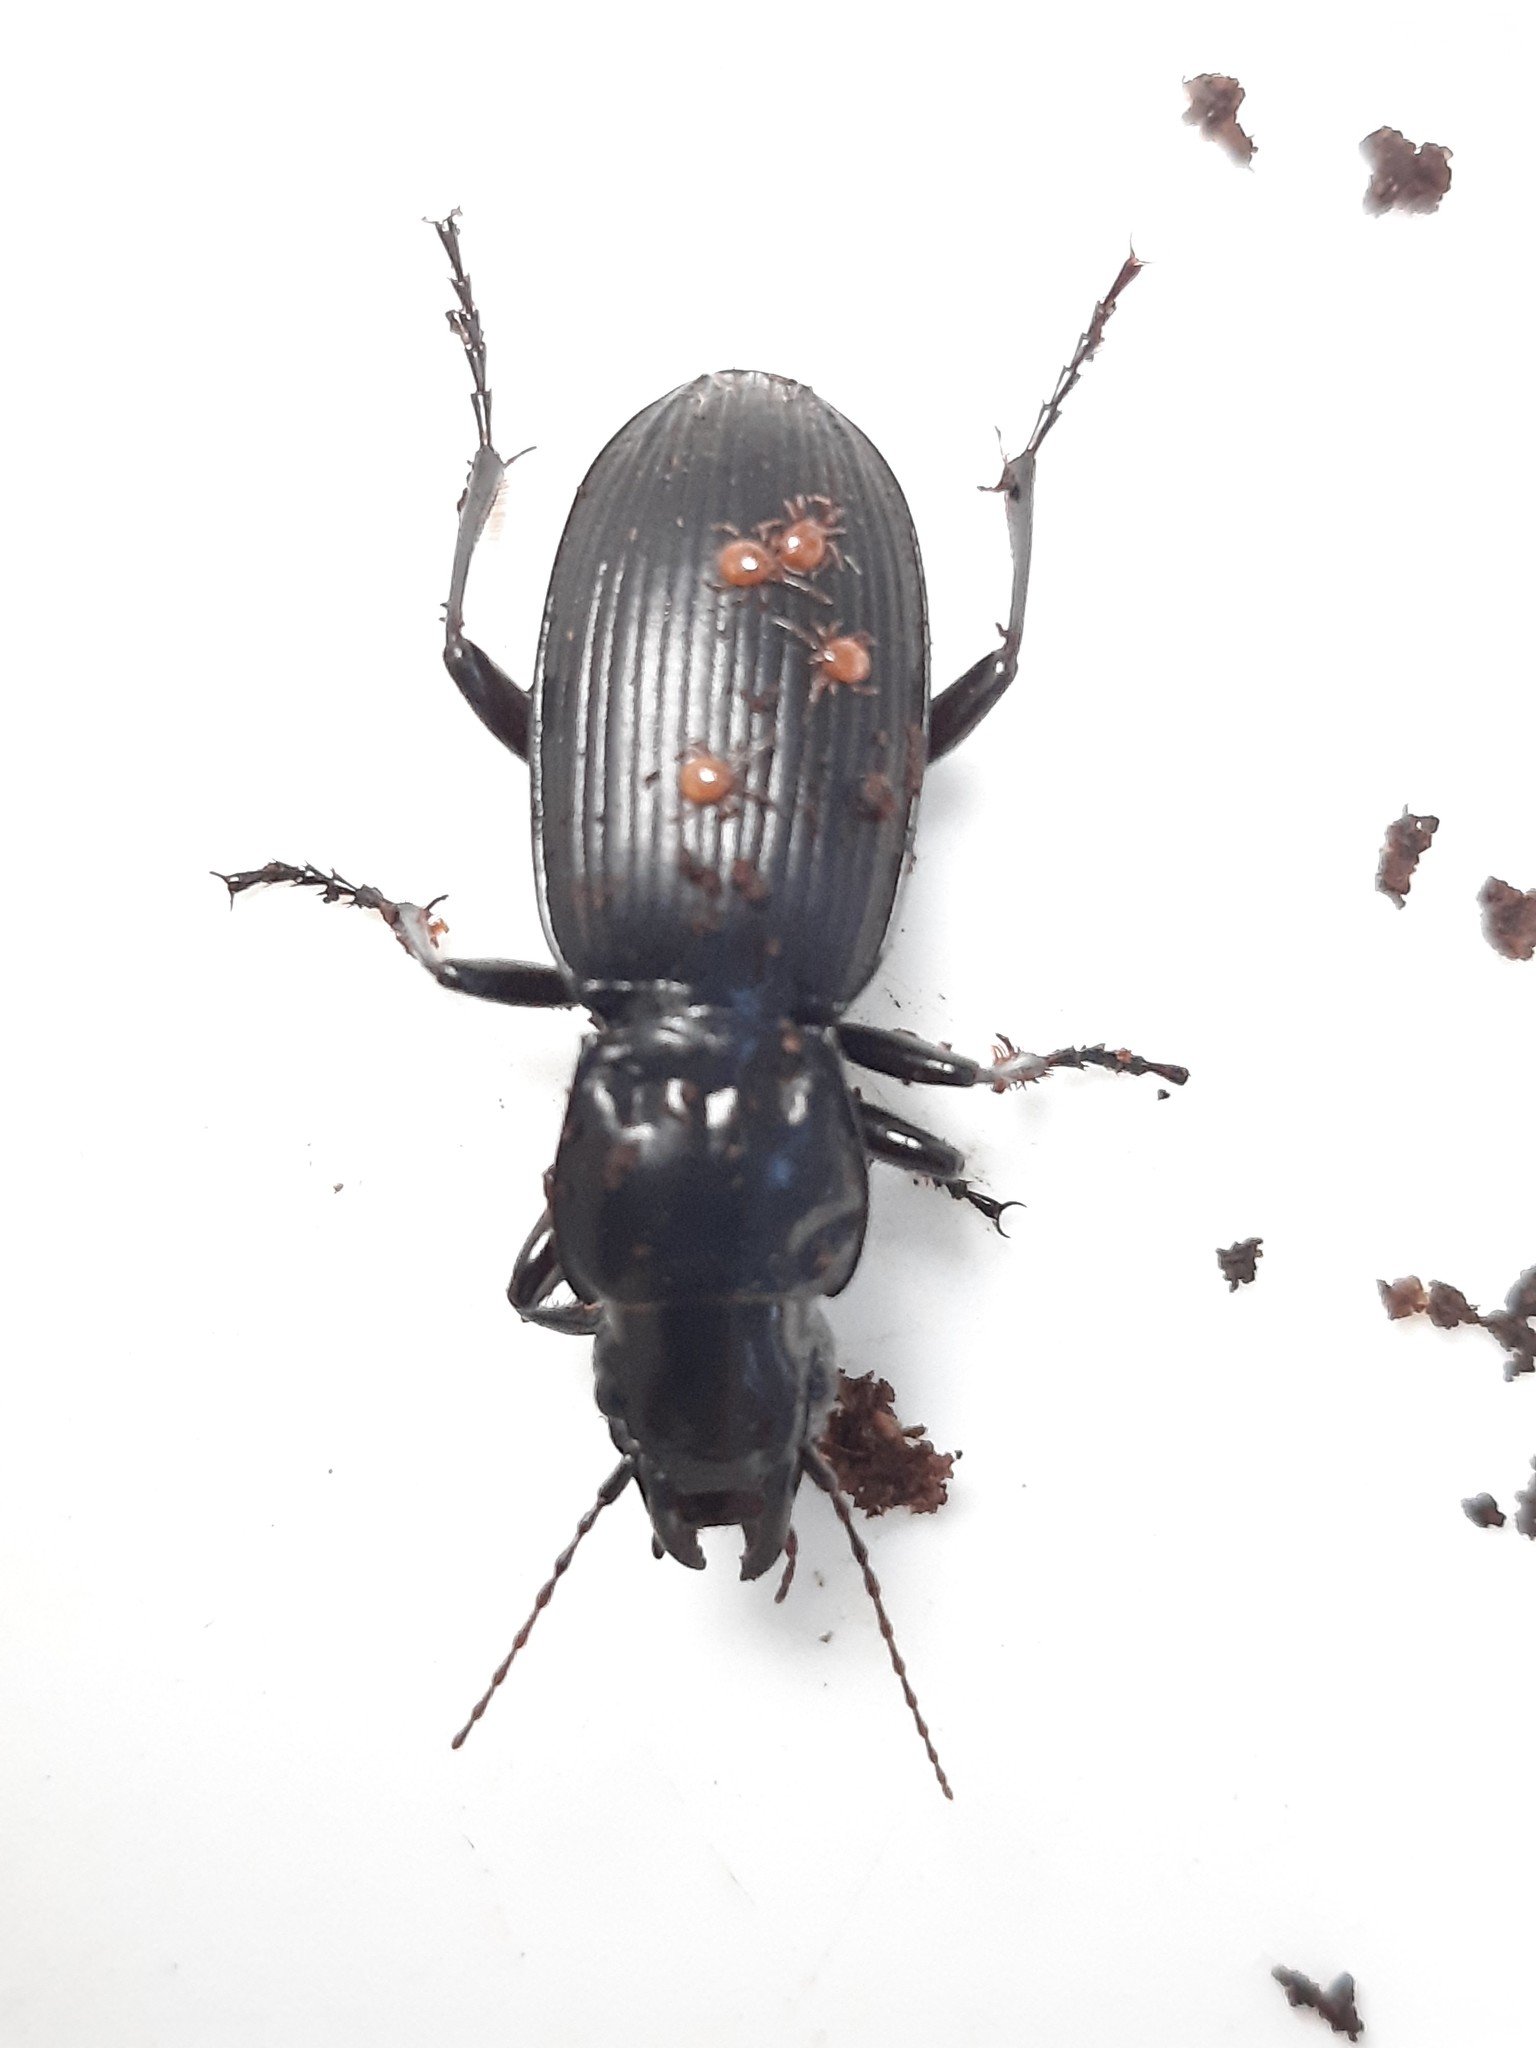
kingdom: Animalia
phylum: Arthropoda
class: Insecta
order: Coleoptera
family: Carabidae
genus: Plocamostethus
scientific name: Plocamostethus planiusculus
